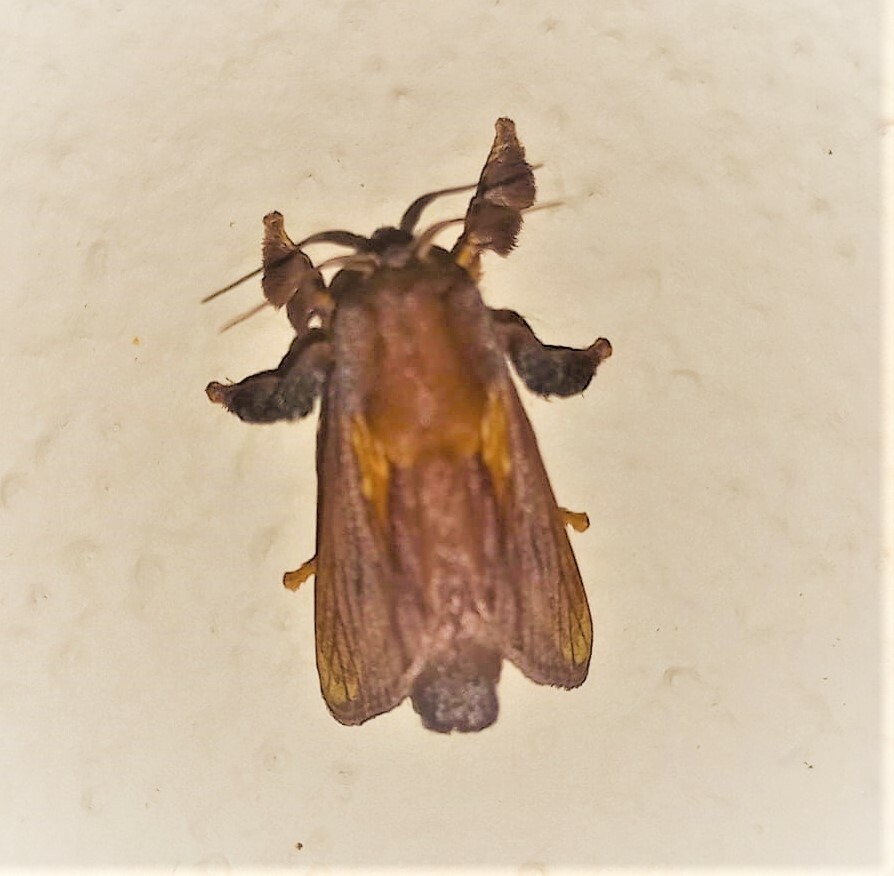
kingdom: Animalia
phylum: Arthropoda
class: Insecta
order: Lepidoptera
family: Limacodidae
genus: Talima
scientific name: Talima aurora
